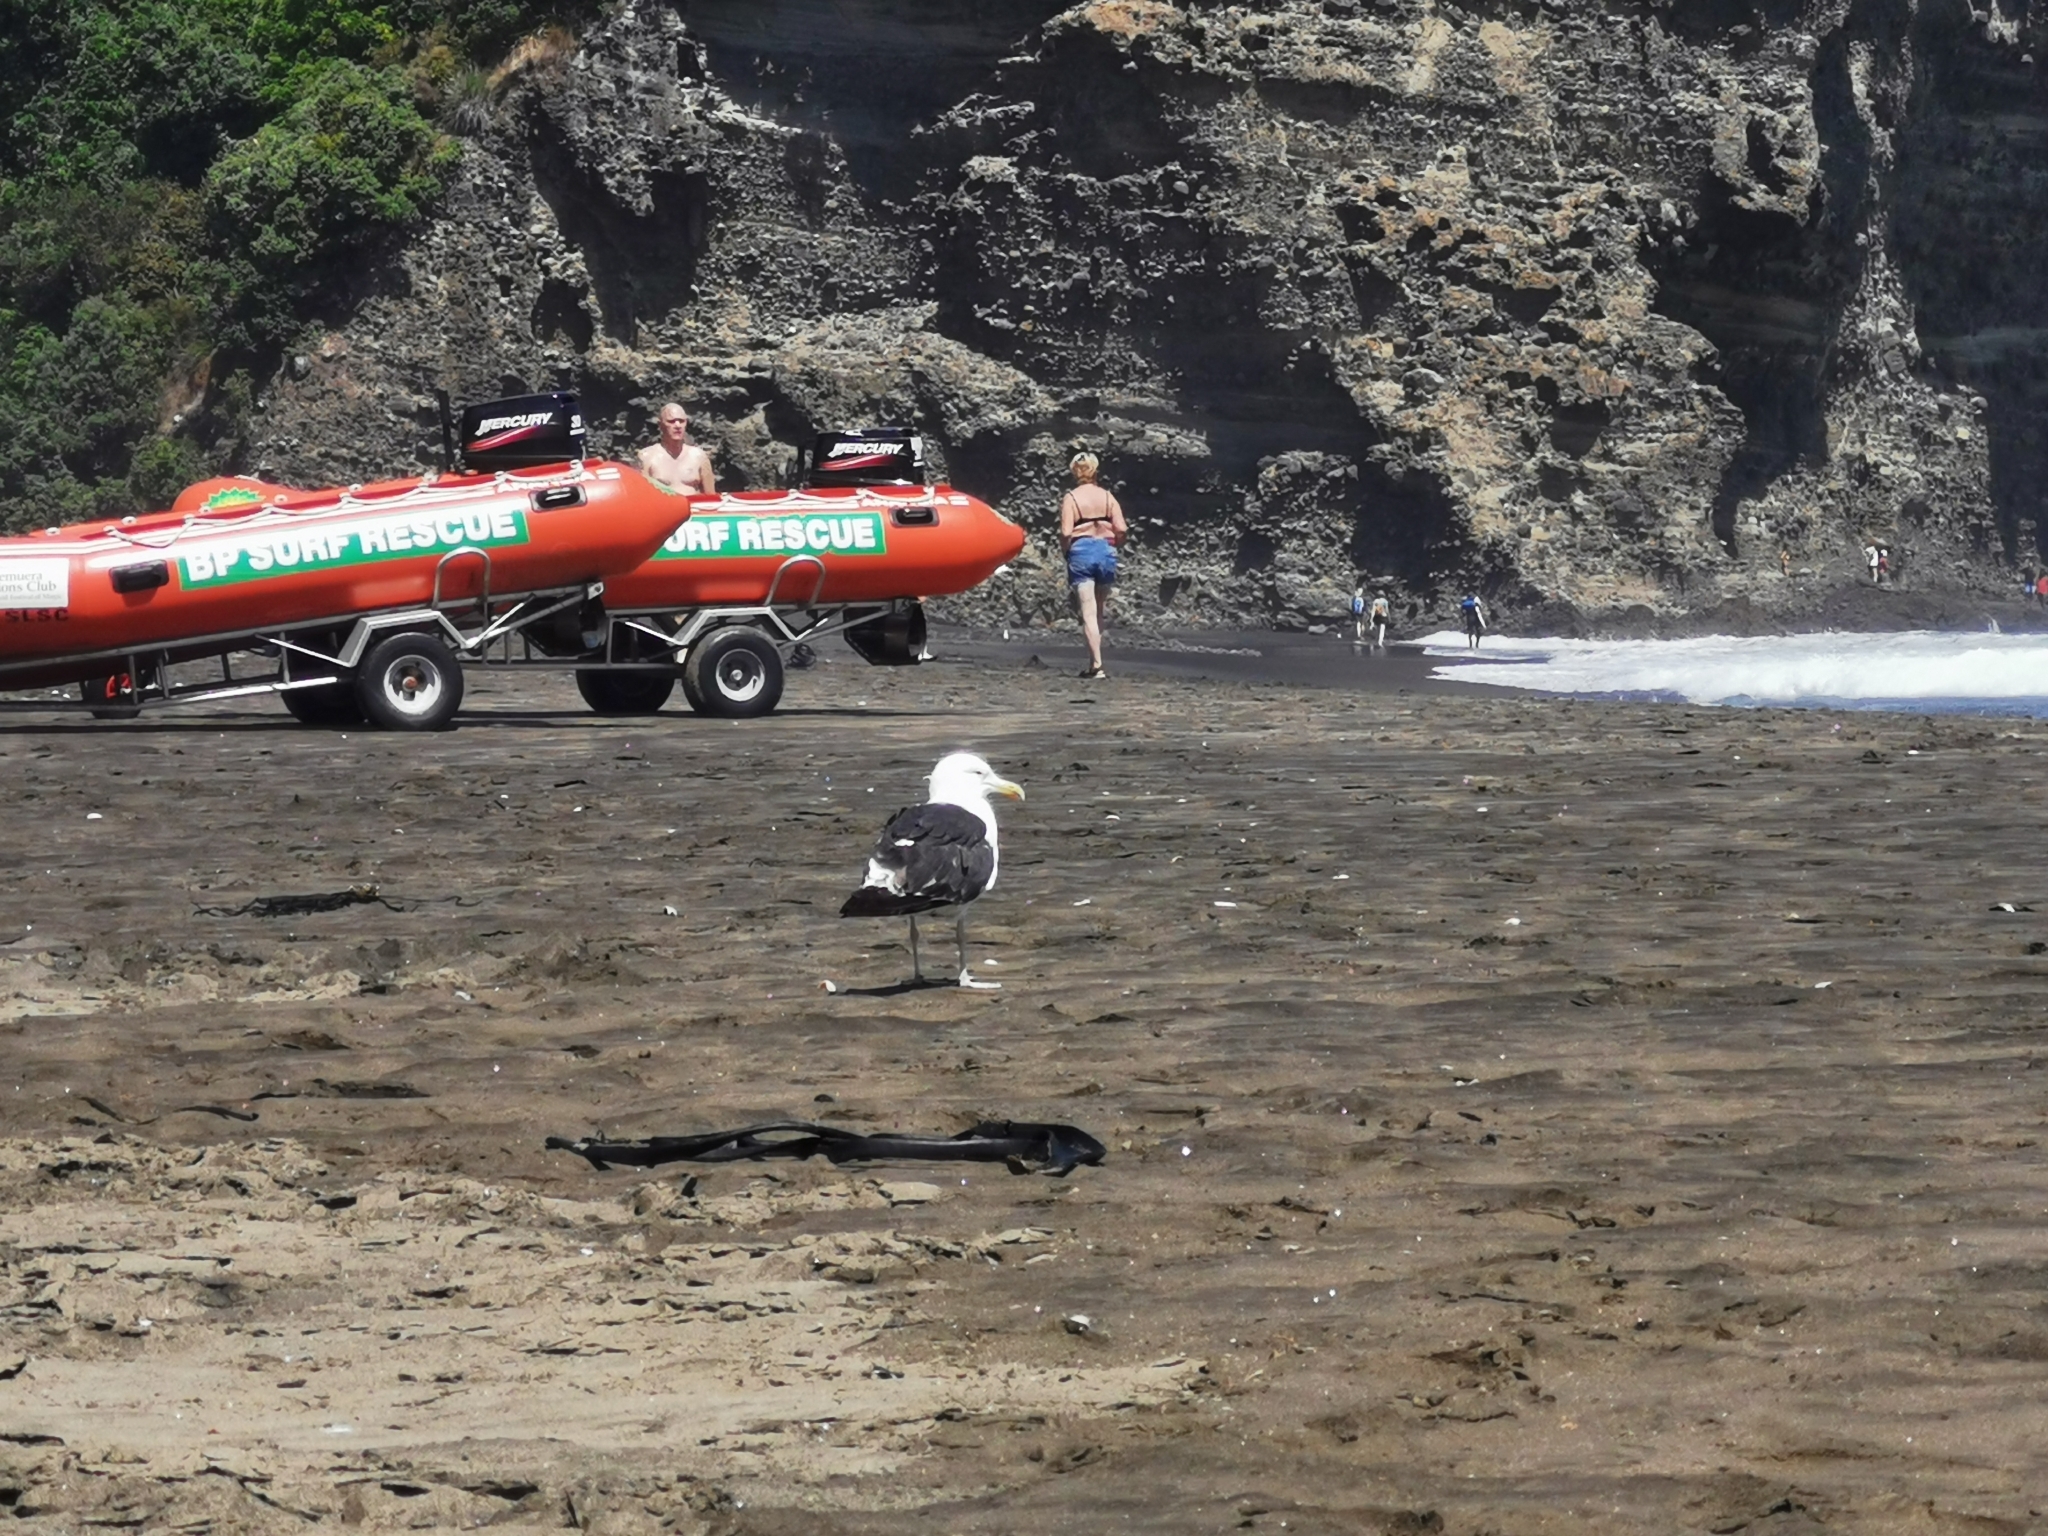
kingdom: Animalia
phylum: Chordata
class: Aves
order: Charadriiformes
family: Laridae
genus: Larus
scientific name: Larus dominicanus
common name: Kelp gull
